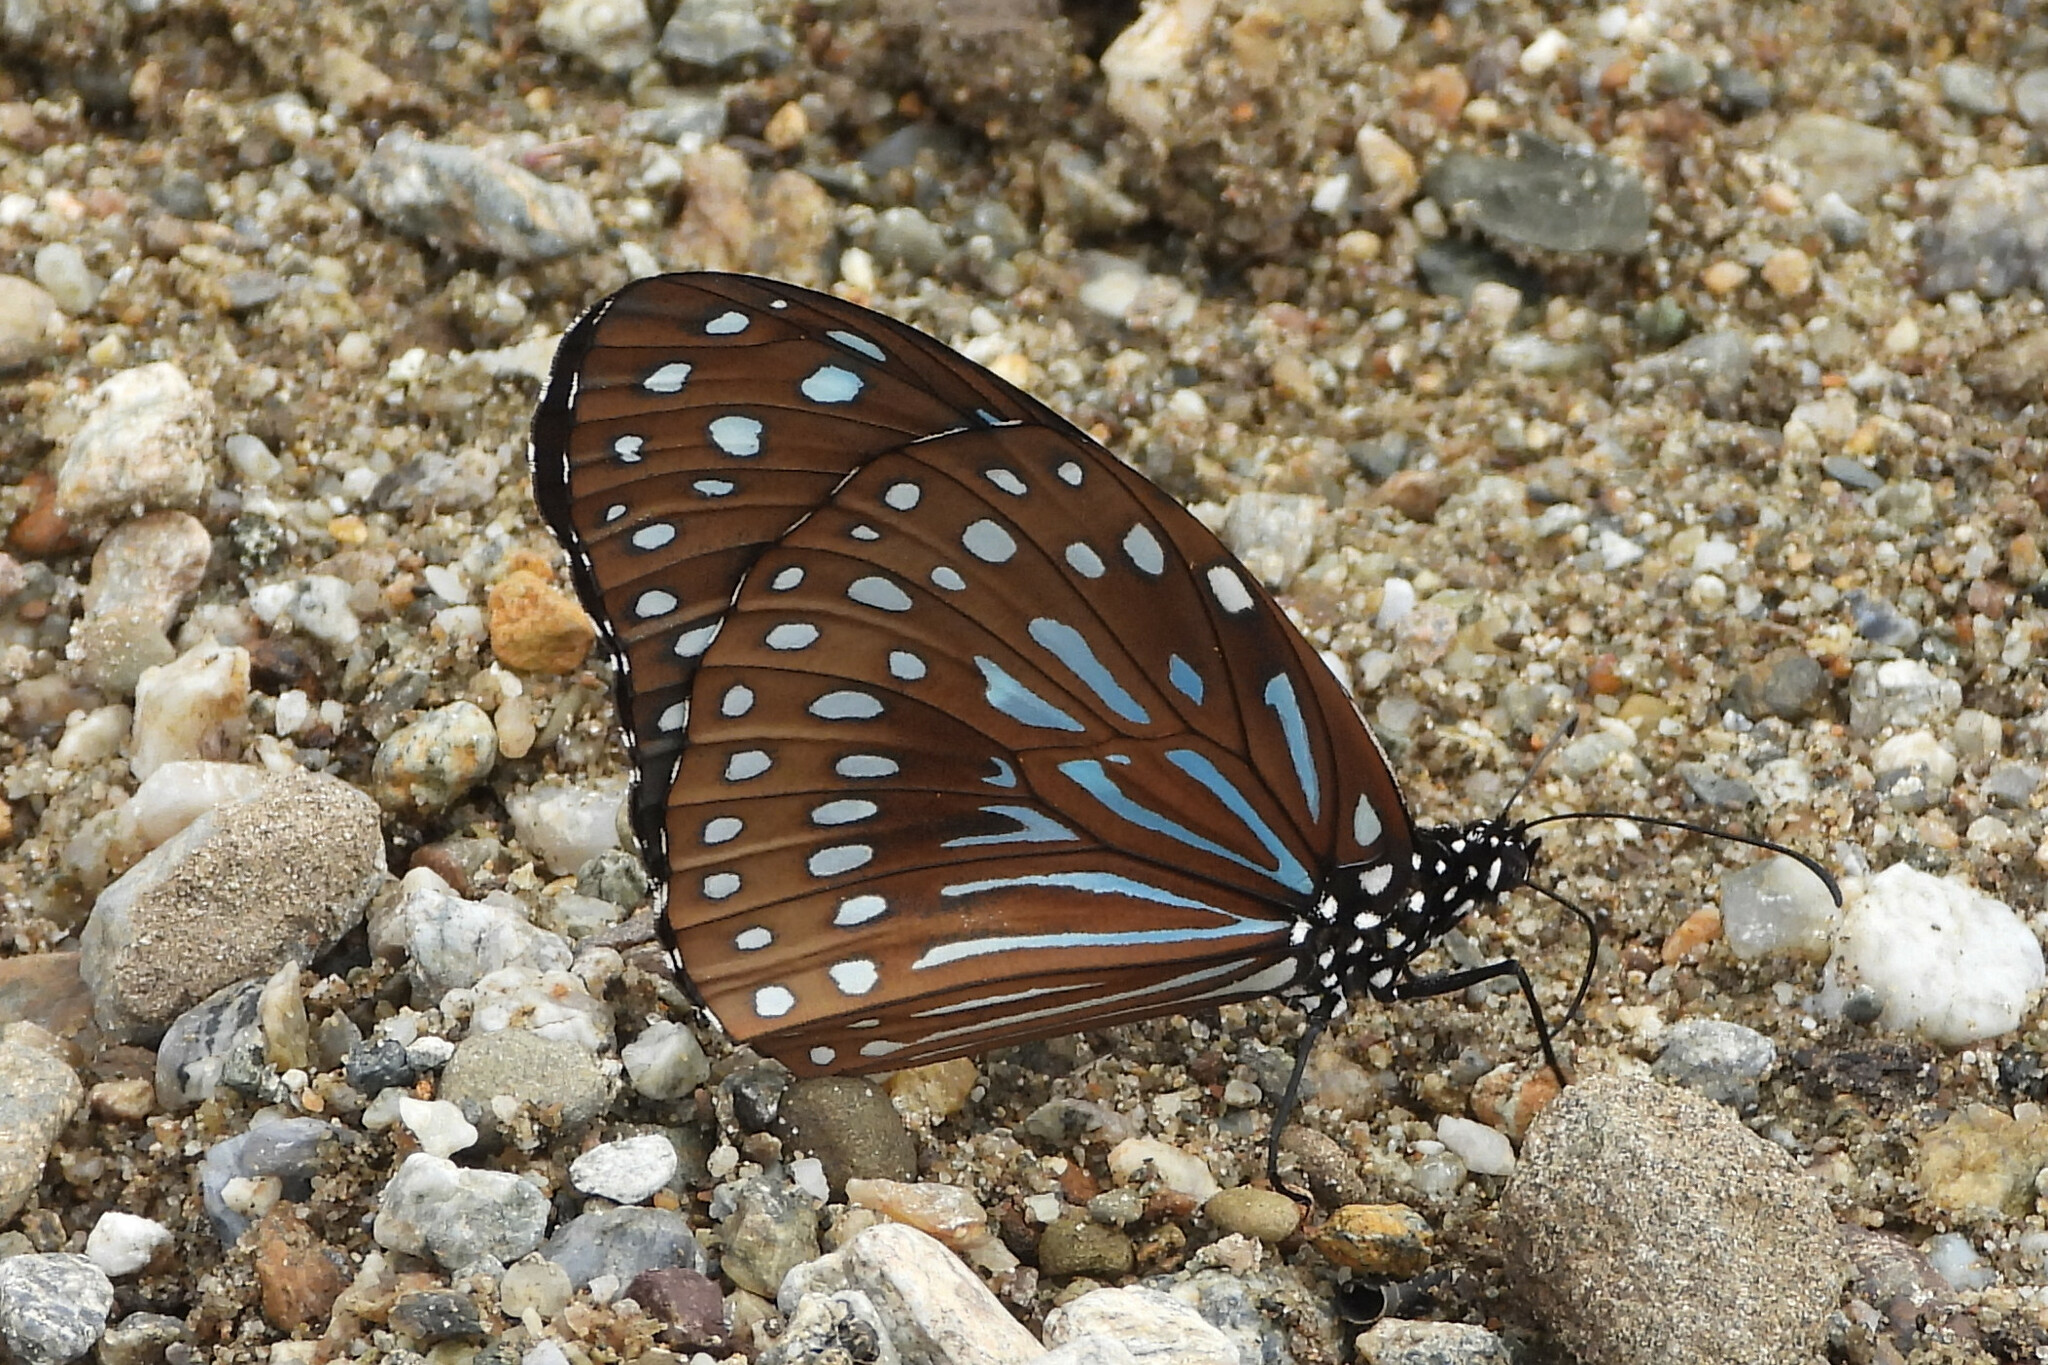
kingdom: Animalia
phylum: Arthropoda
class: Insecta
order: Lepidoptera
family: Nymphalidae
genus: Tirumala
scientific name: Tirumala septentrionis
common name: Dark blue tiger butterfly
